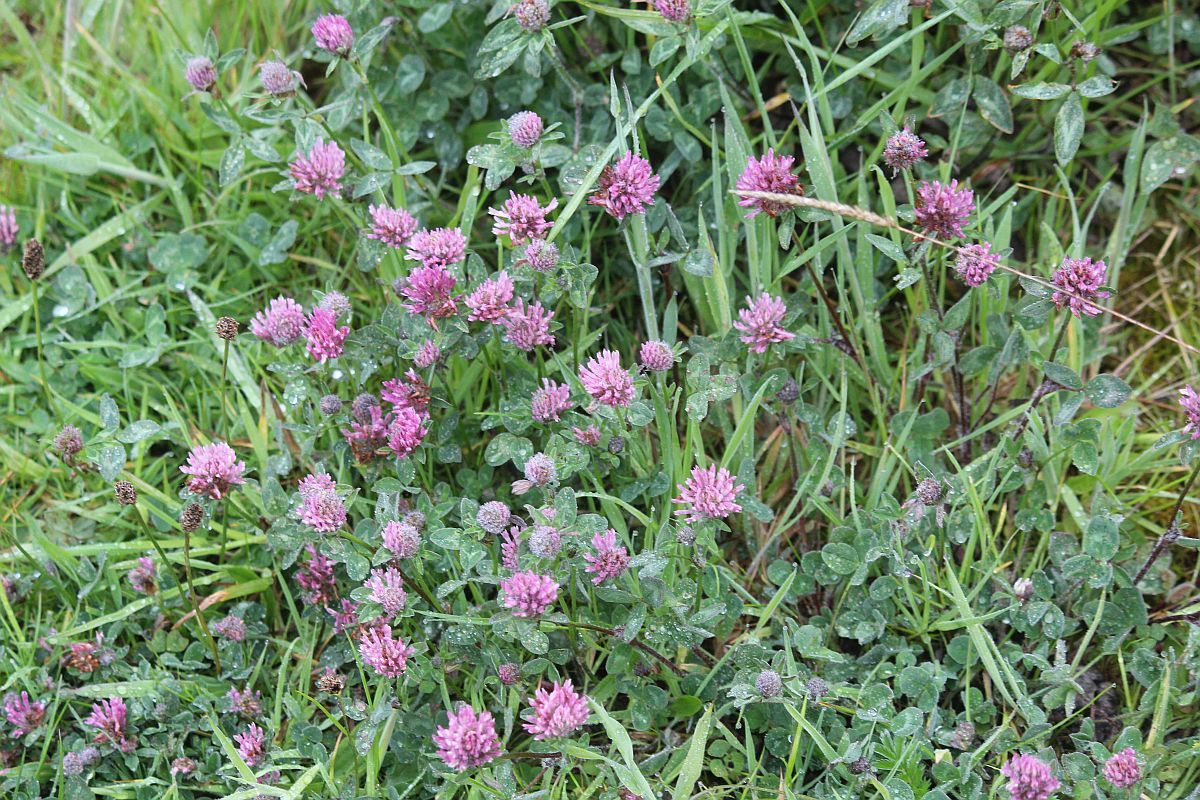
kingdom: Plantae
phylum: Tracheophyta
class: Magnoliopsida
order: Fabales
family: Fabaceae
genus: Trifolium
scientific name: Trifolium pratense
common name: Red clover
